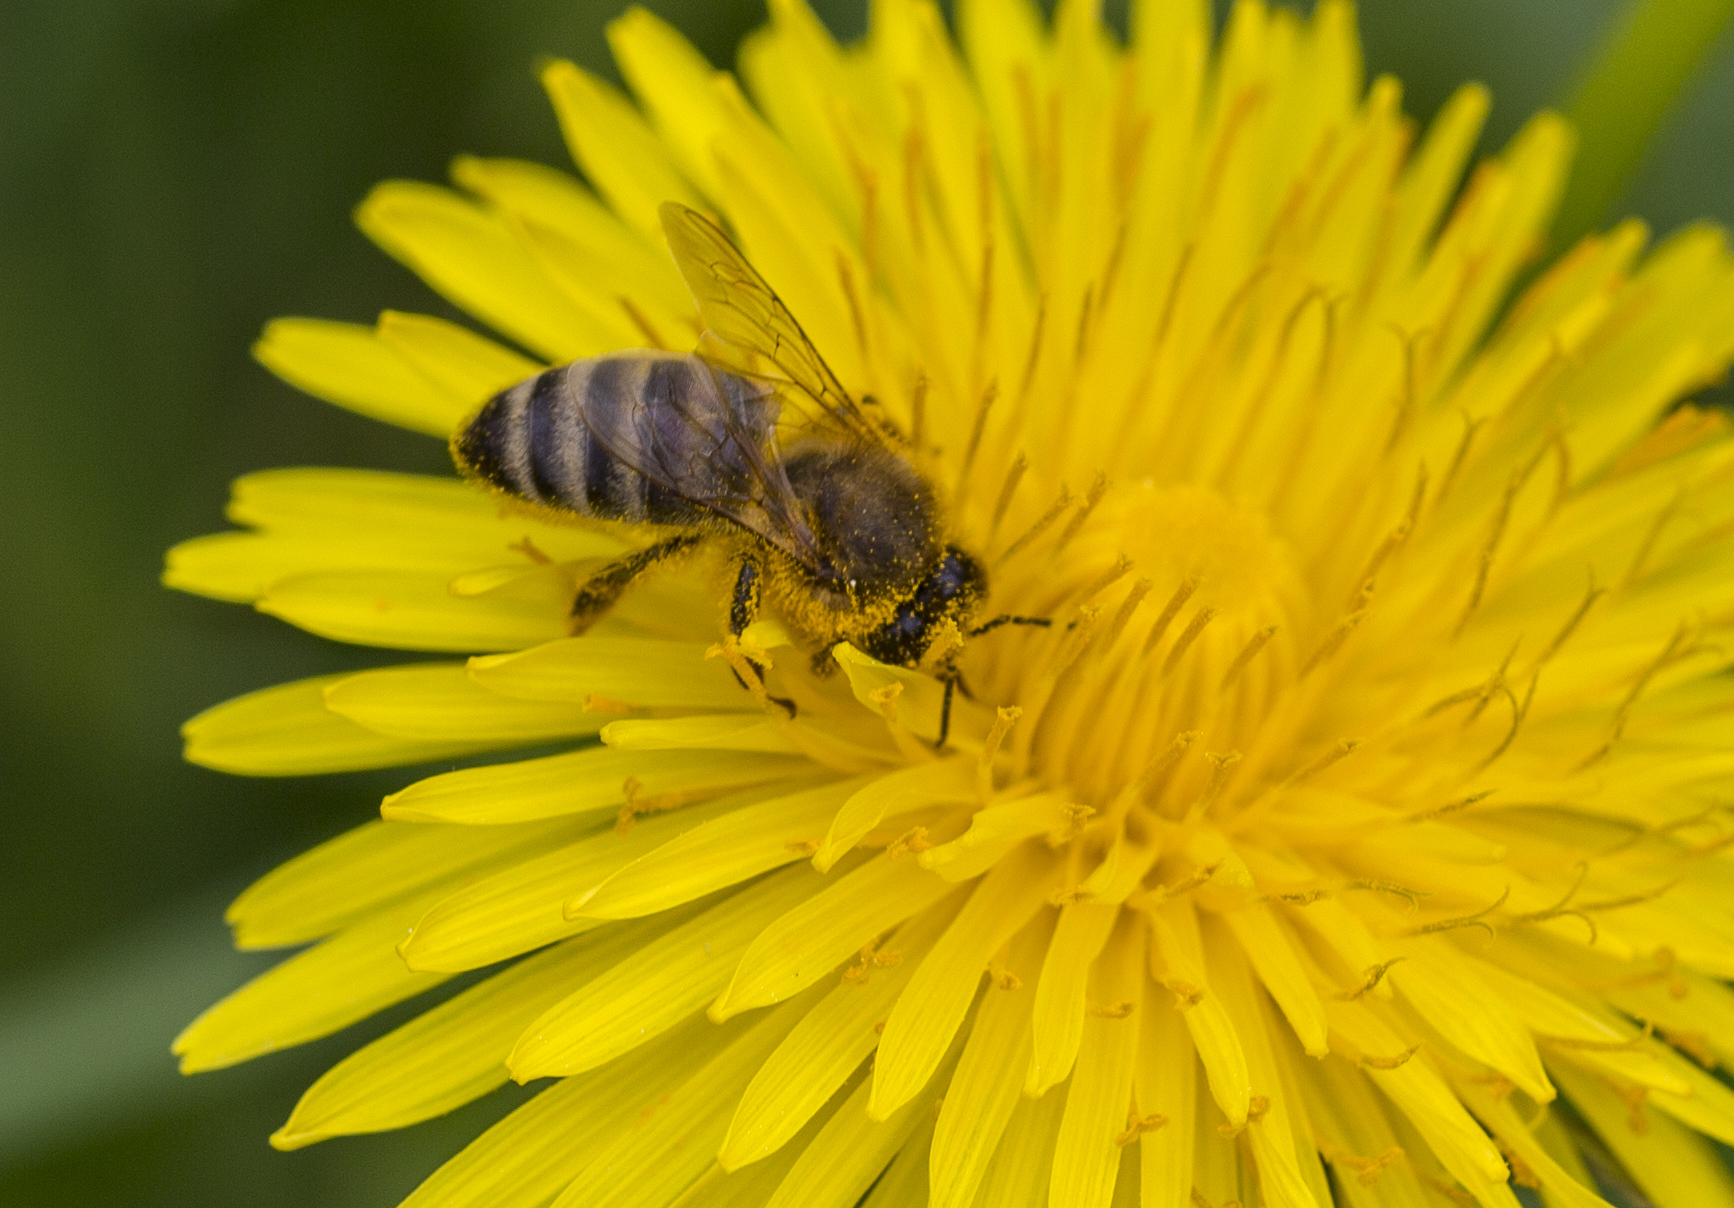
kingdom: Animalia
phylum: Arthropoda
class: Insecta
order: Hymenoptera
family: Apidae
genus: Apis
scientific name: Apis mellifera
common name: Honey bee
